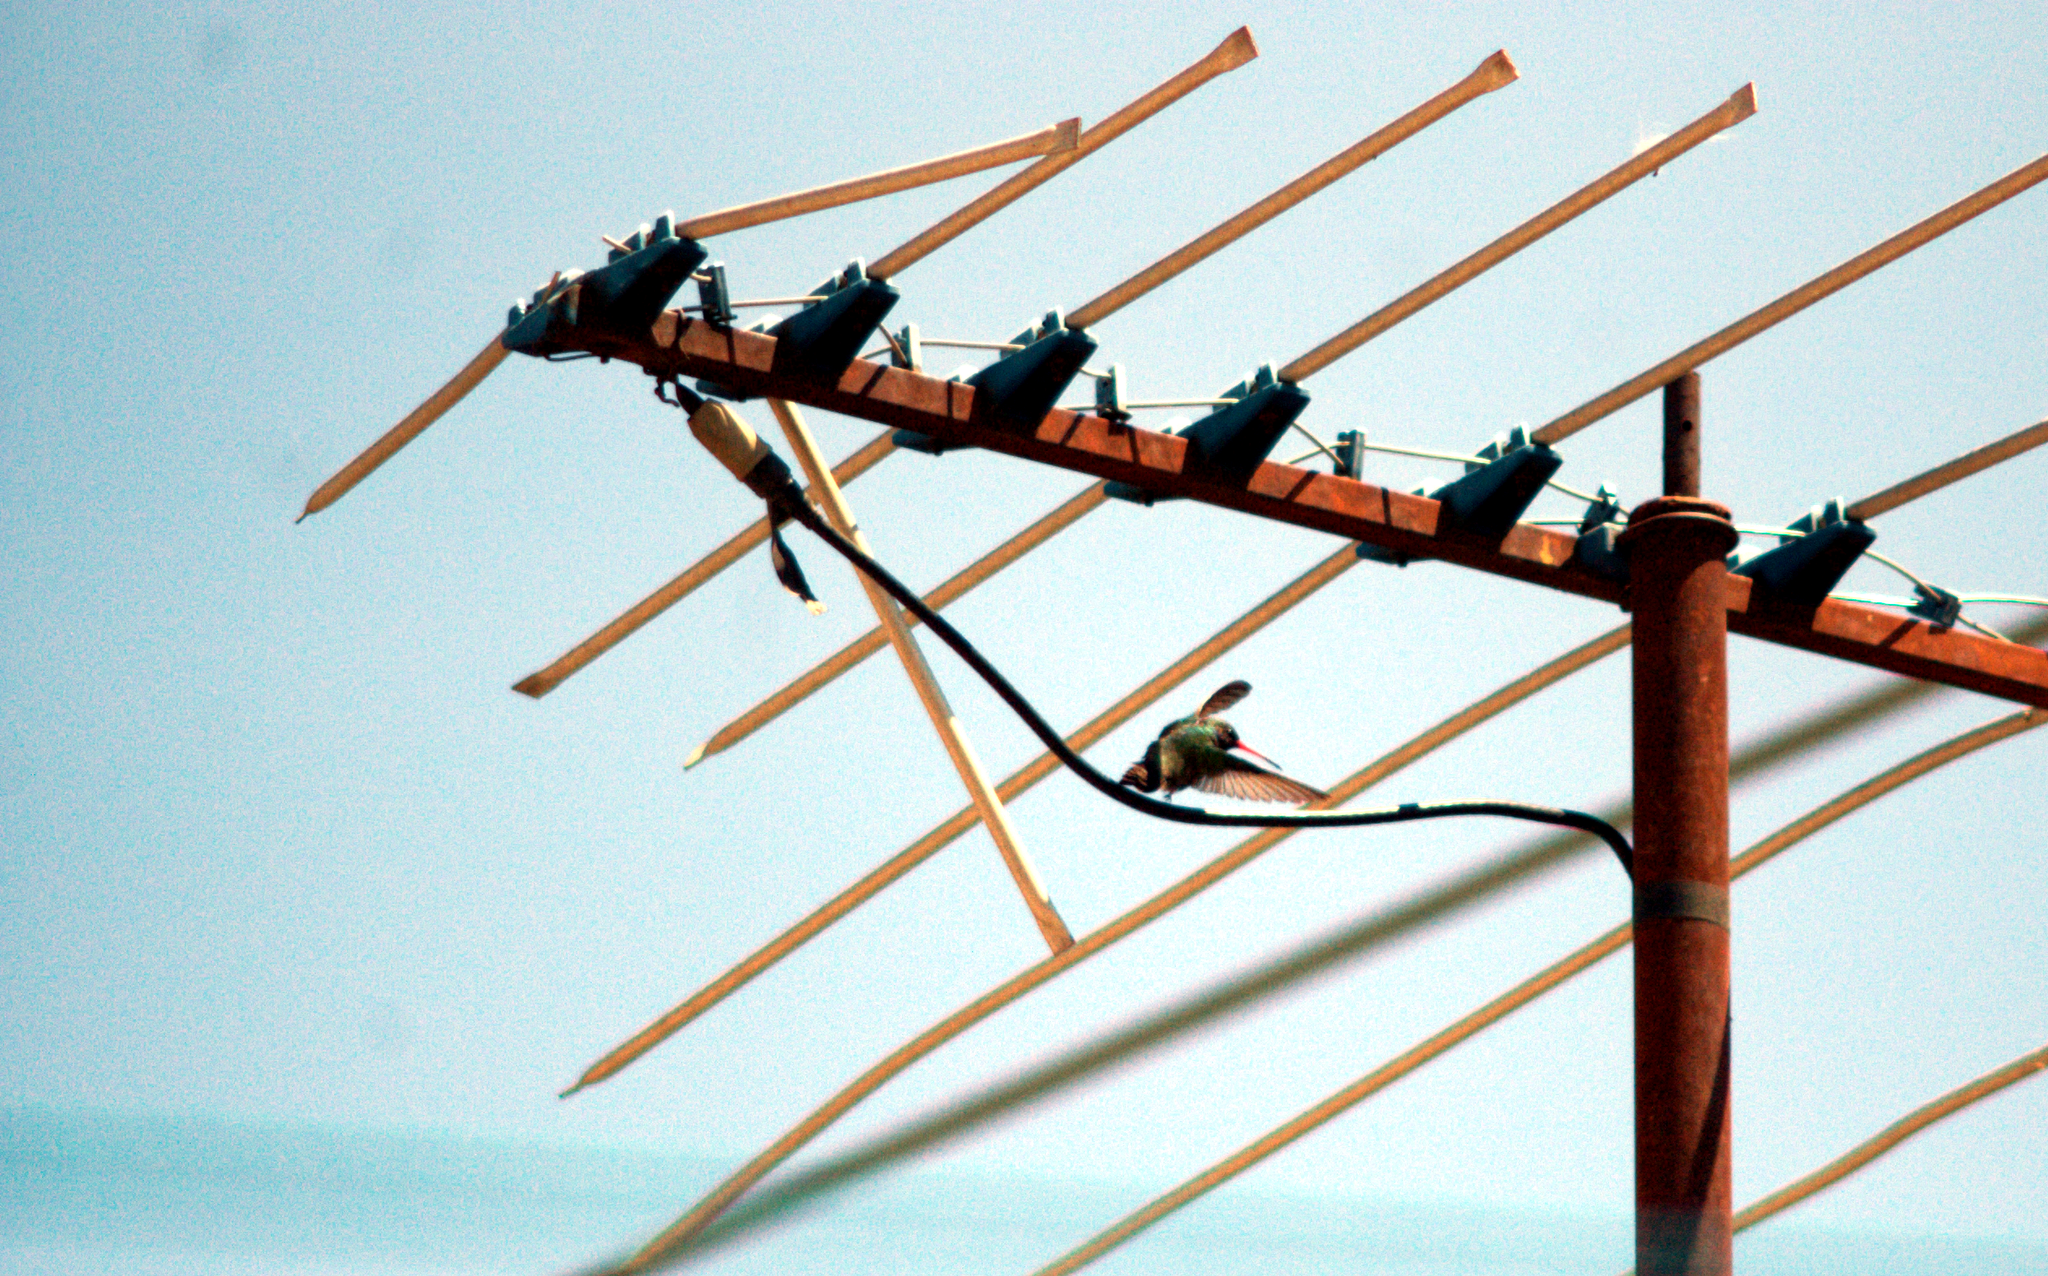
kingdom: Animalia
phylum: Chordata
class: Aves
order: Apodiformes
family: Trochilidae
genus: Cynanthus
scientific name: Cynanthus latirostris
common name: Broad-billed hummingbird
